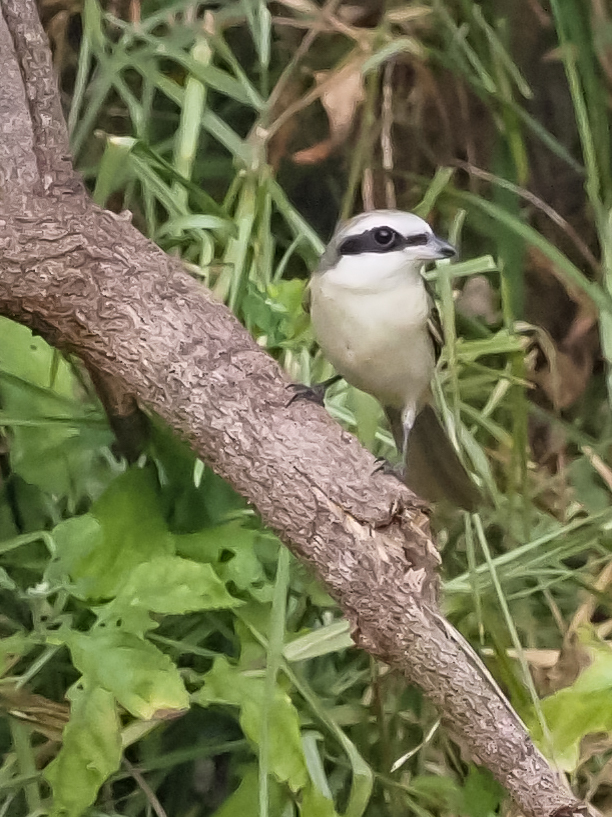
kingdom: Animalia
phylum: Chordata
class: Aves
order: Passeriformes
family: Laniidae
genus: Lanius
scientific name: Lanius cristatus
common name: Brown shrike
